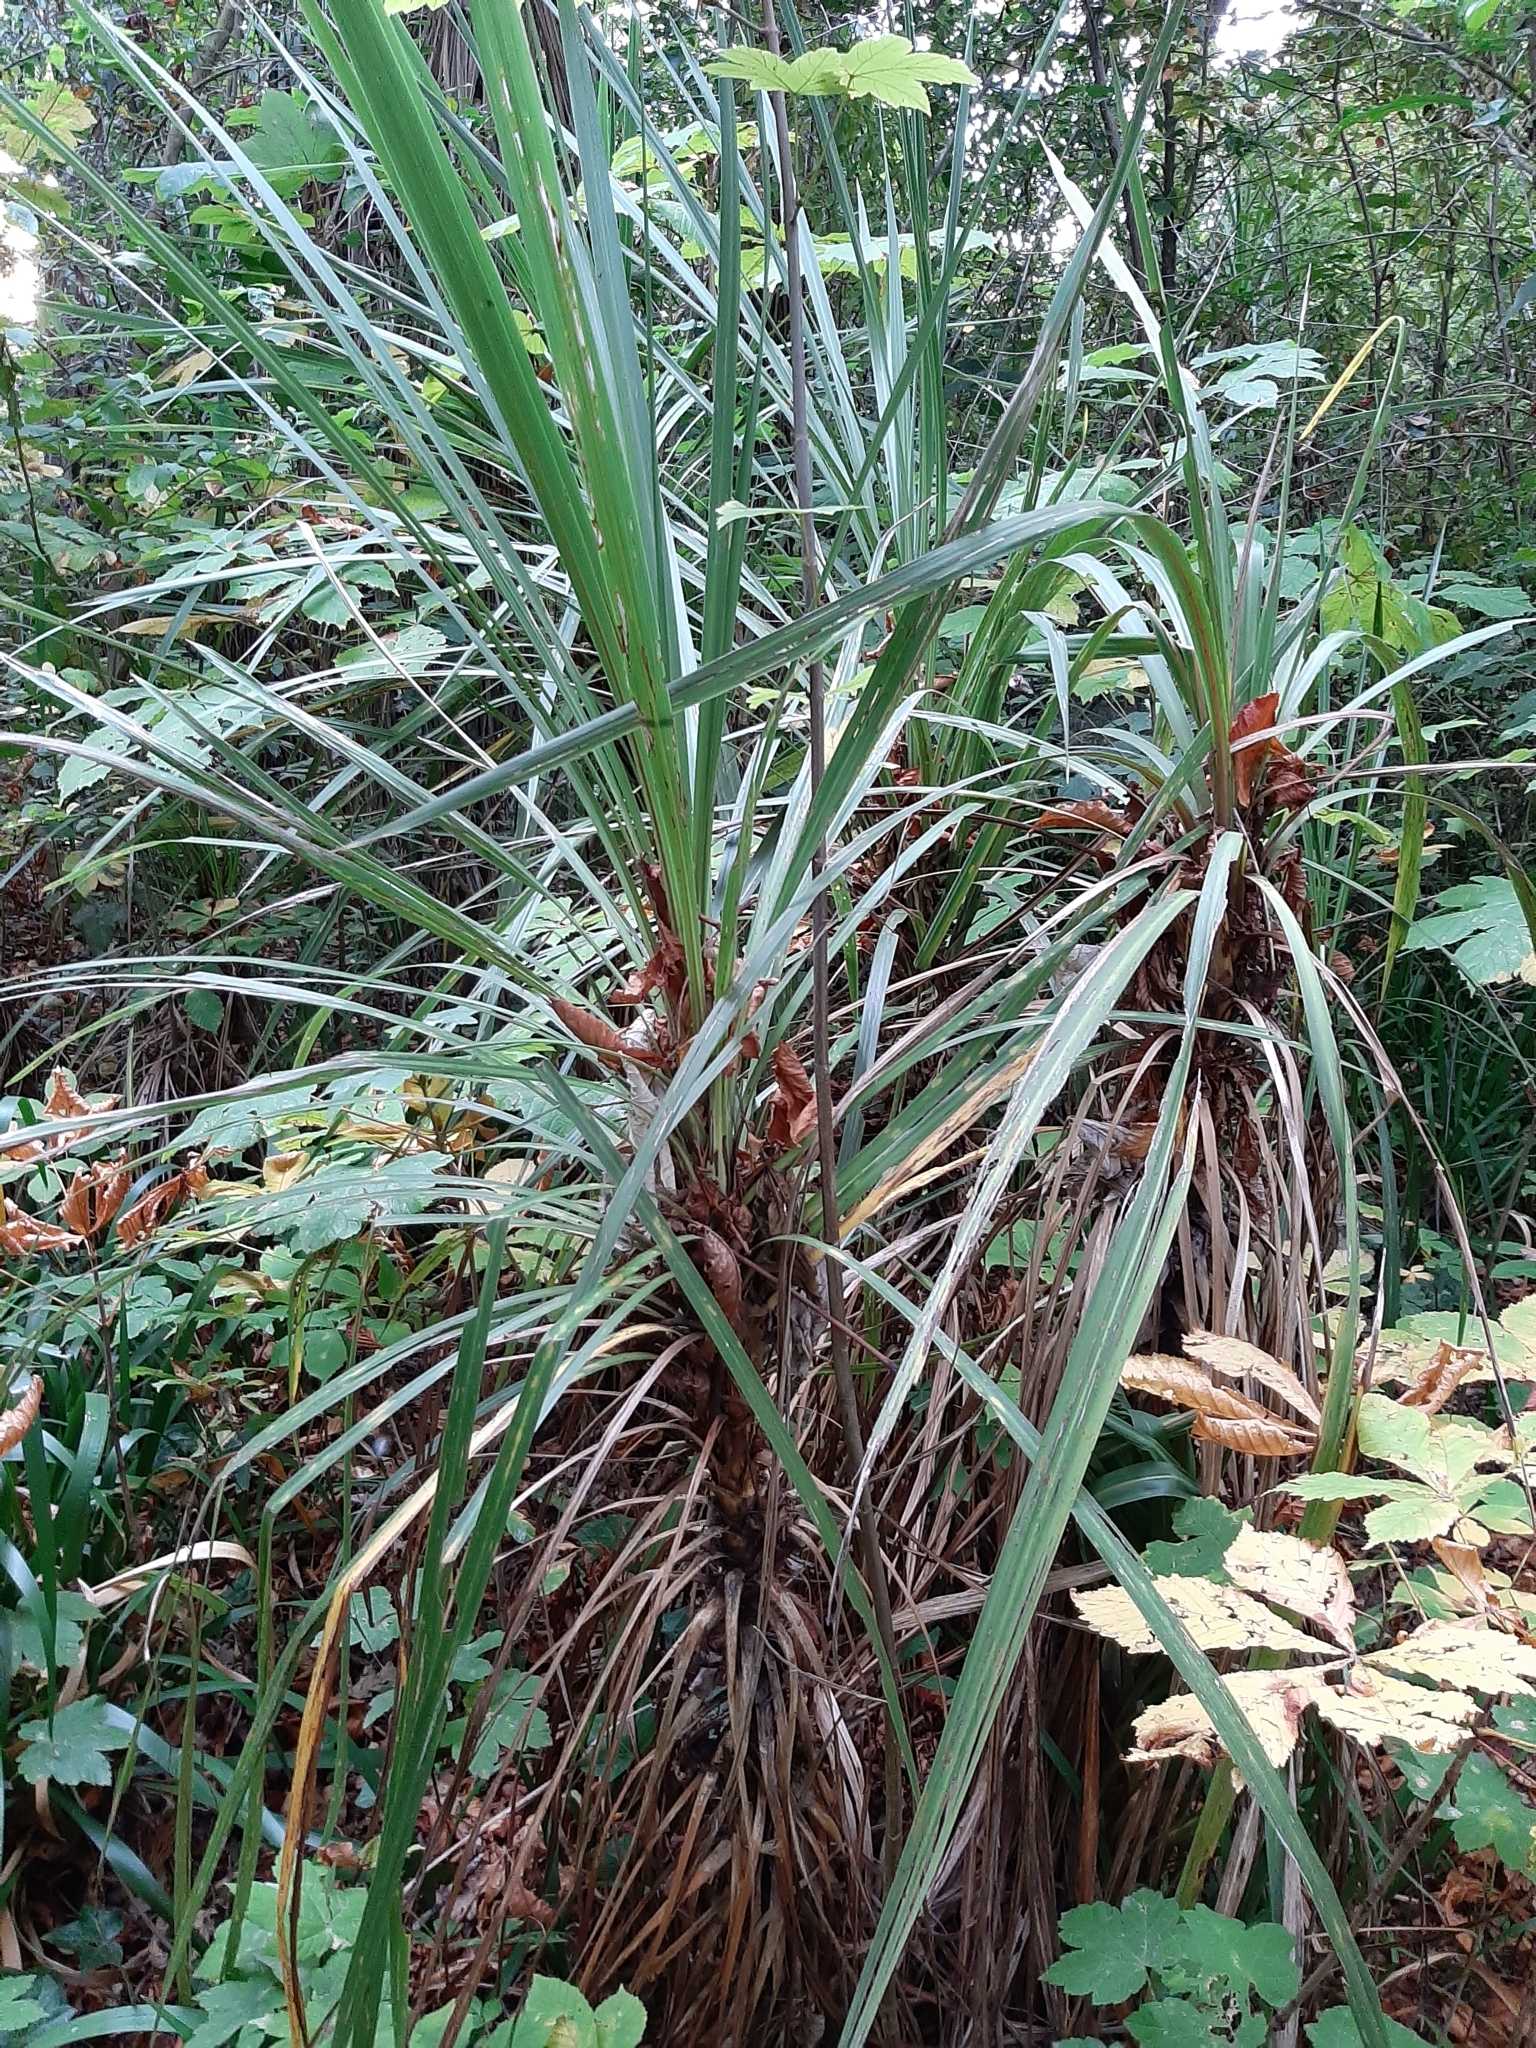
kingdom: Plantae
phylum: Tracheophyta
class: Liliopsida
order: Asparagales
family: Asparagaceae
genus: Cordyline
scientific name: Cordyline australis
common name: Cabbage-palm
